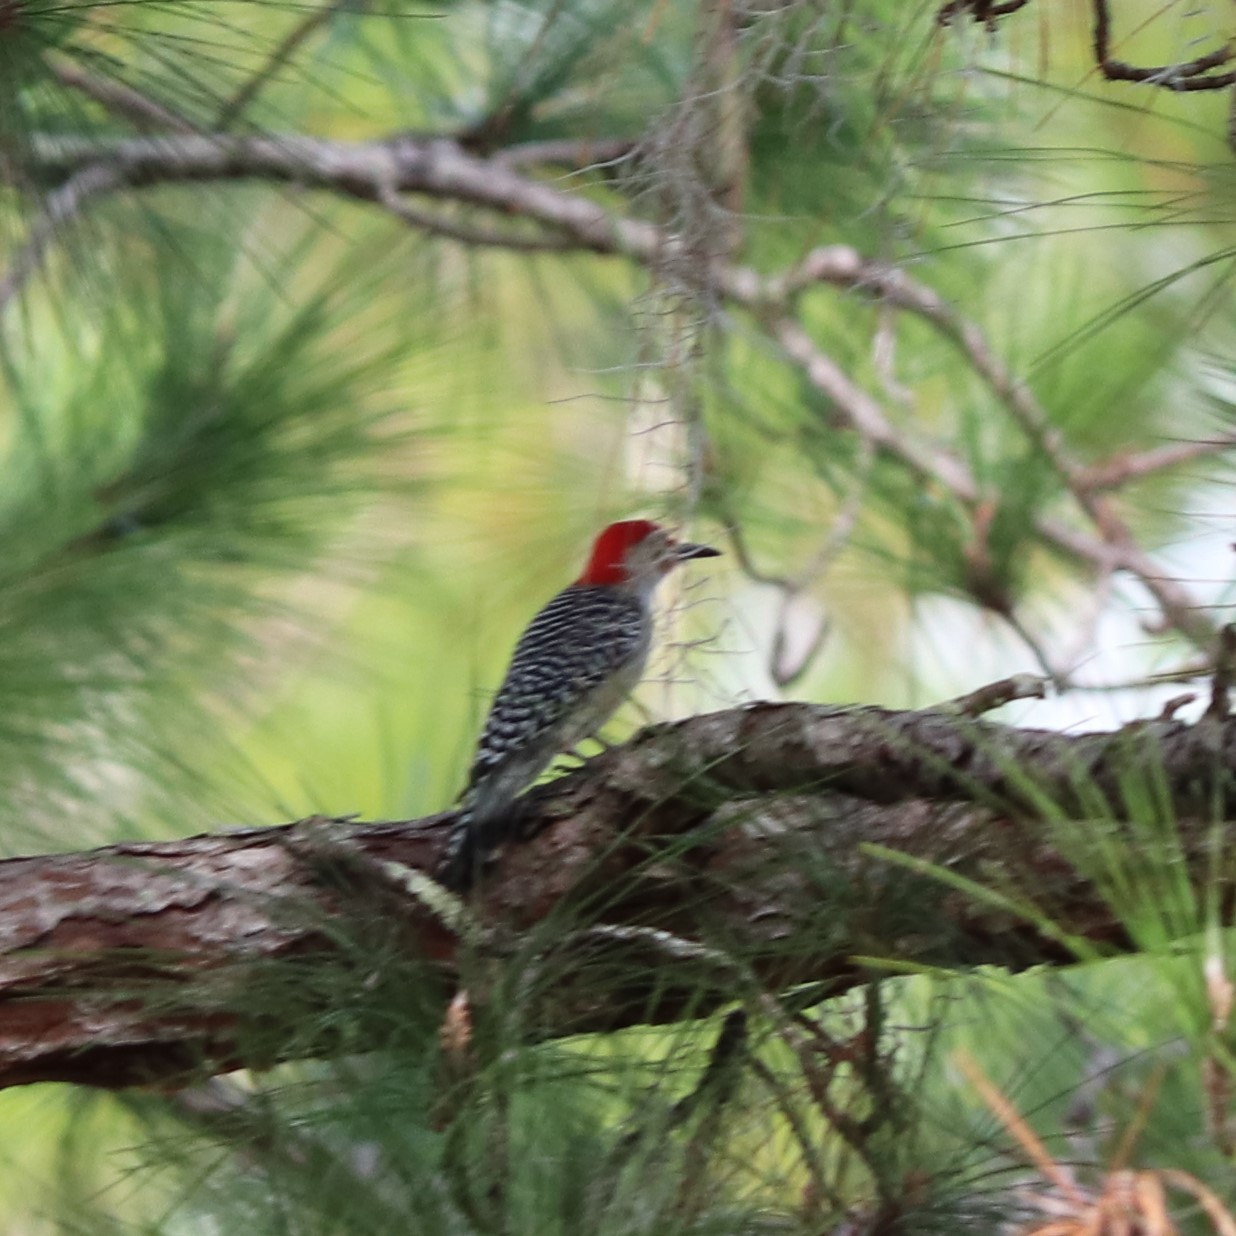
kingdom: Animalia
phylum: Chordata
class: Aves
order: Piciformes
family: Picidae
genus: Melanerpes
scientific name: Melanerpes carolinus
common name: Red-bellied woodpecker
